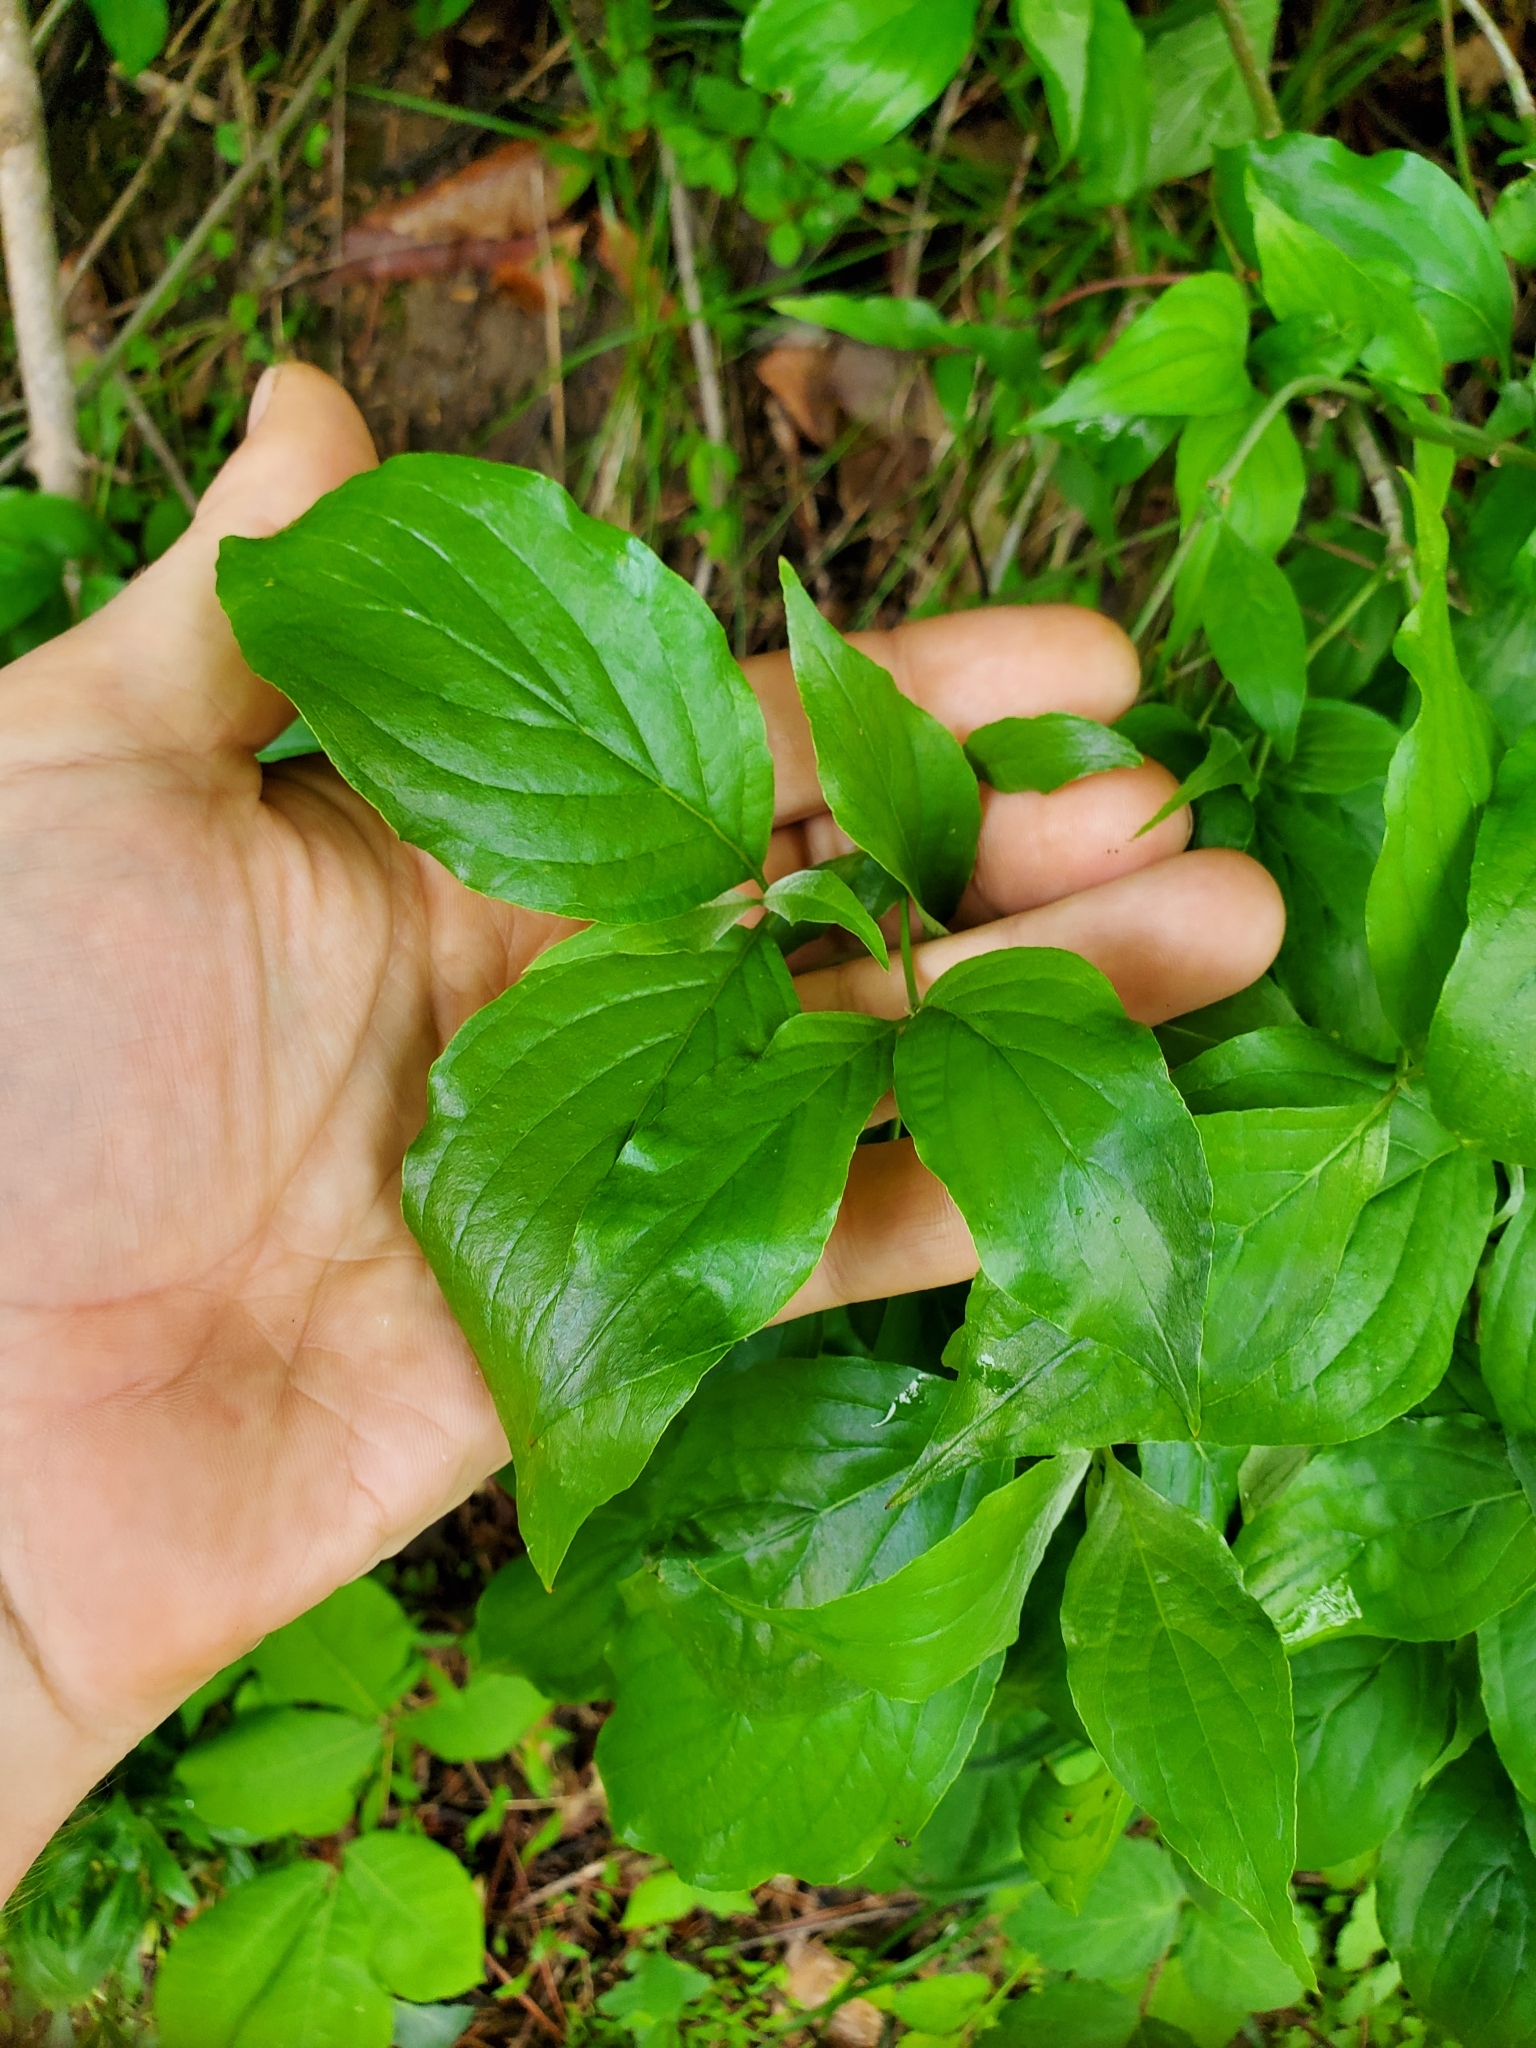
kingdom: Plantae
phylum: Tracheophyta
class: Magnoliopsida
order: Cornales
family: Cornaceae
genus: Cornus
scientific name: Cornus florida
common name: Flowering dogwood
